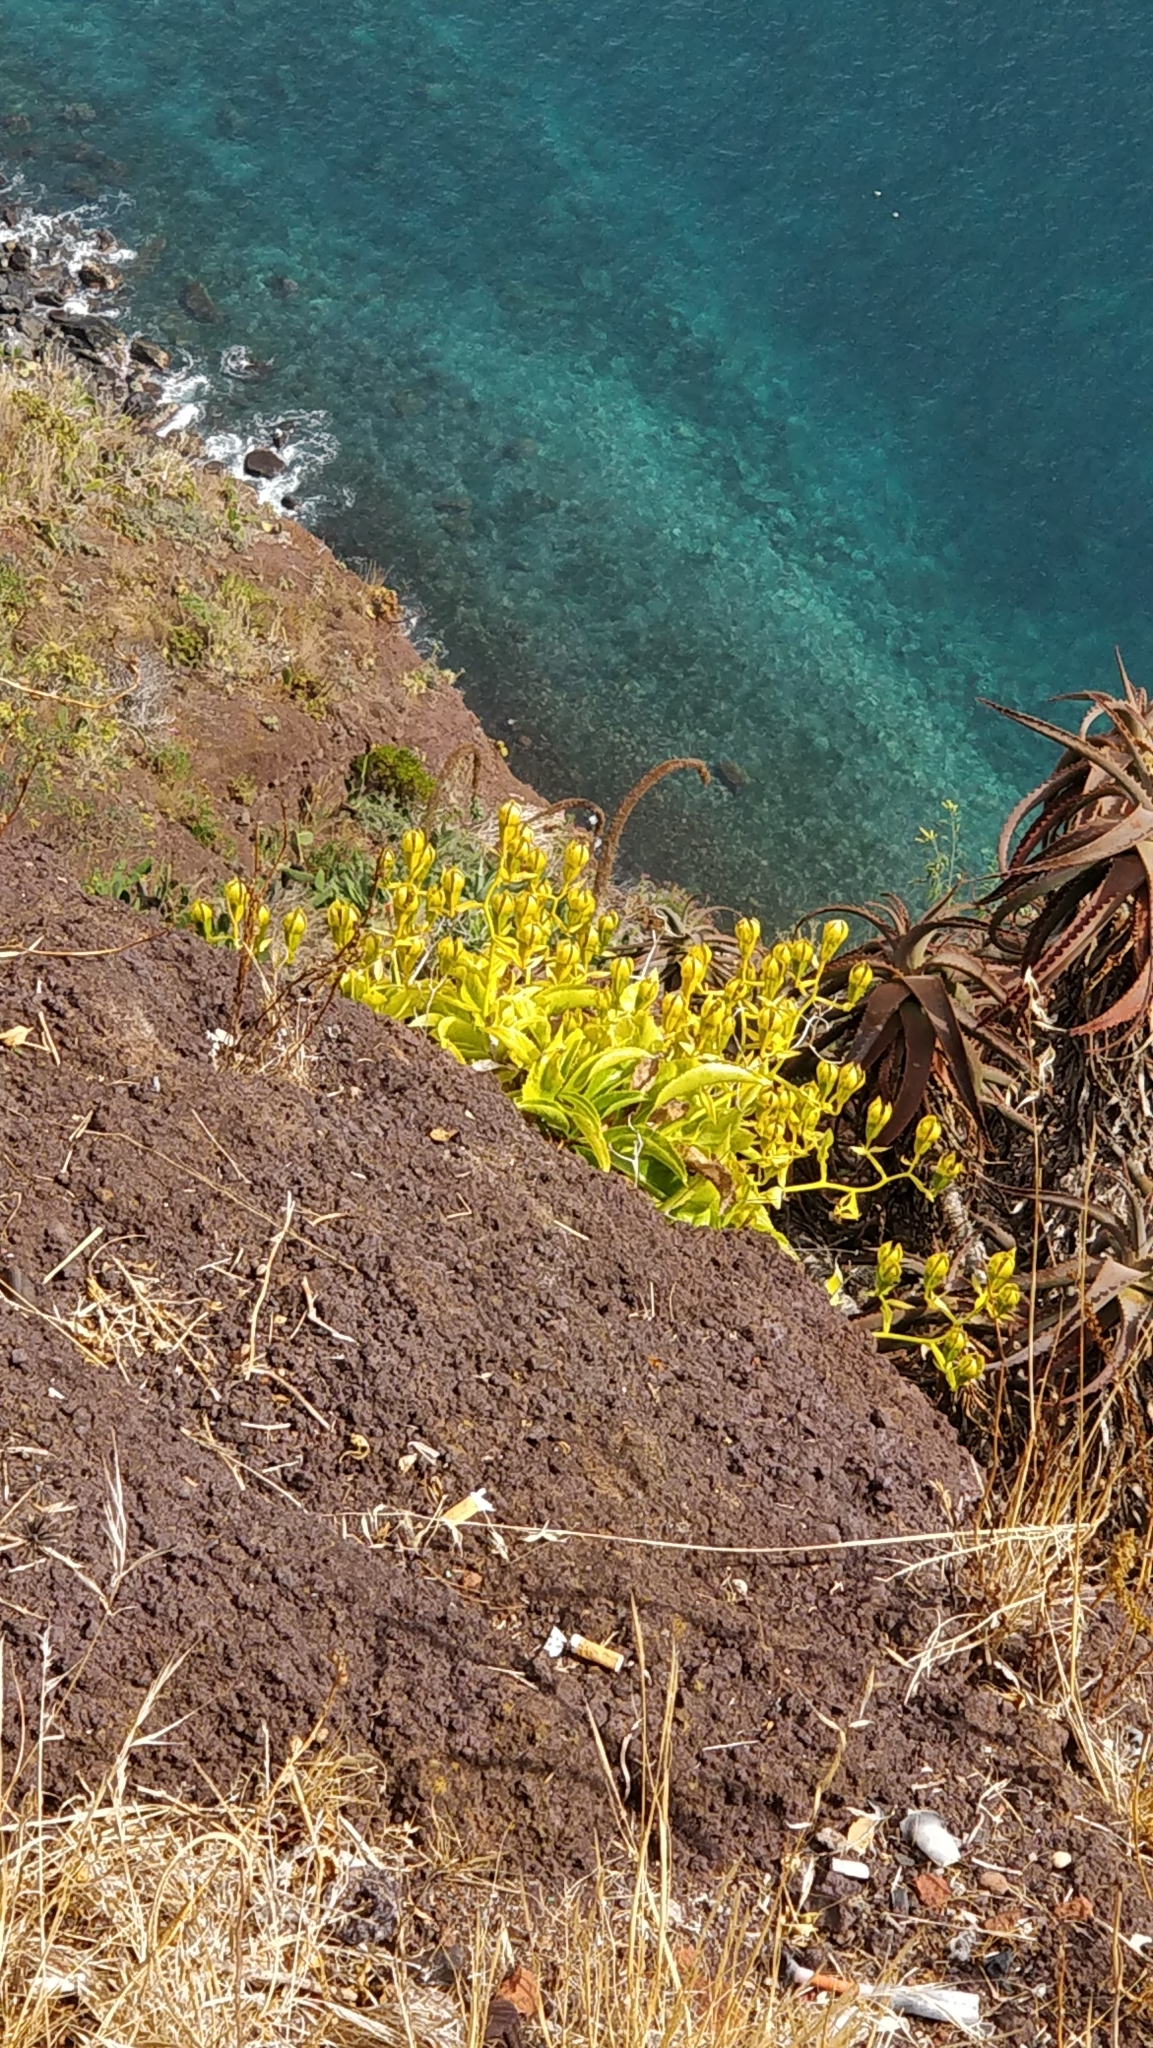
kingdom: Plantae
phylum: Tracheophyta
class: Magnoliopsida
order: Asterales
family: Campanulaceae
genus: Musschia
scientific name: Musschia aurea
